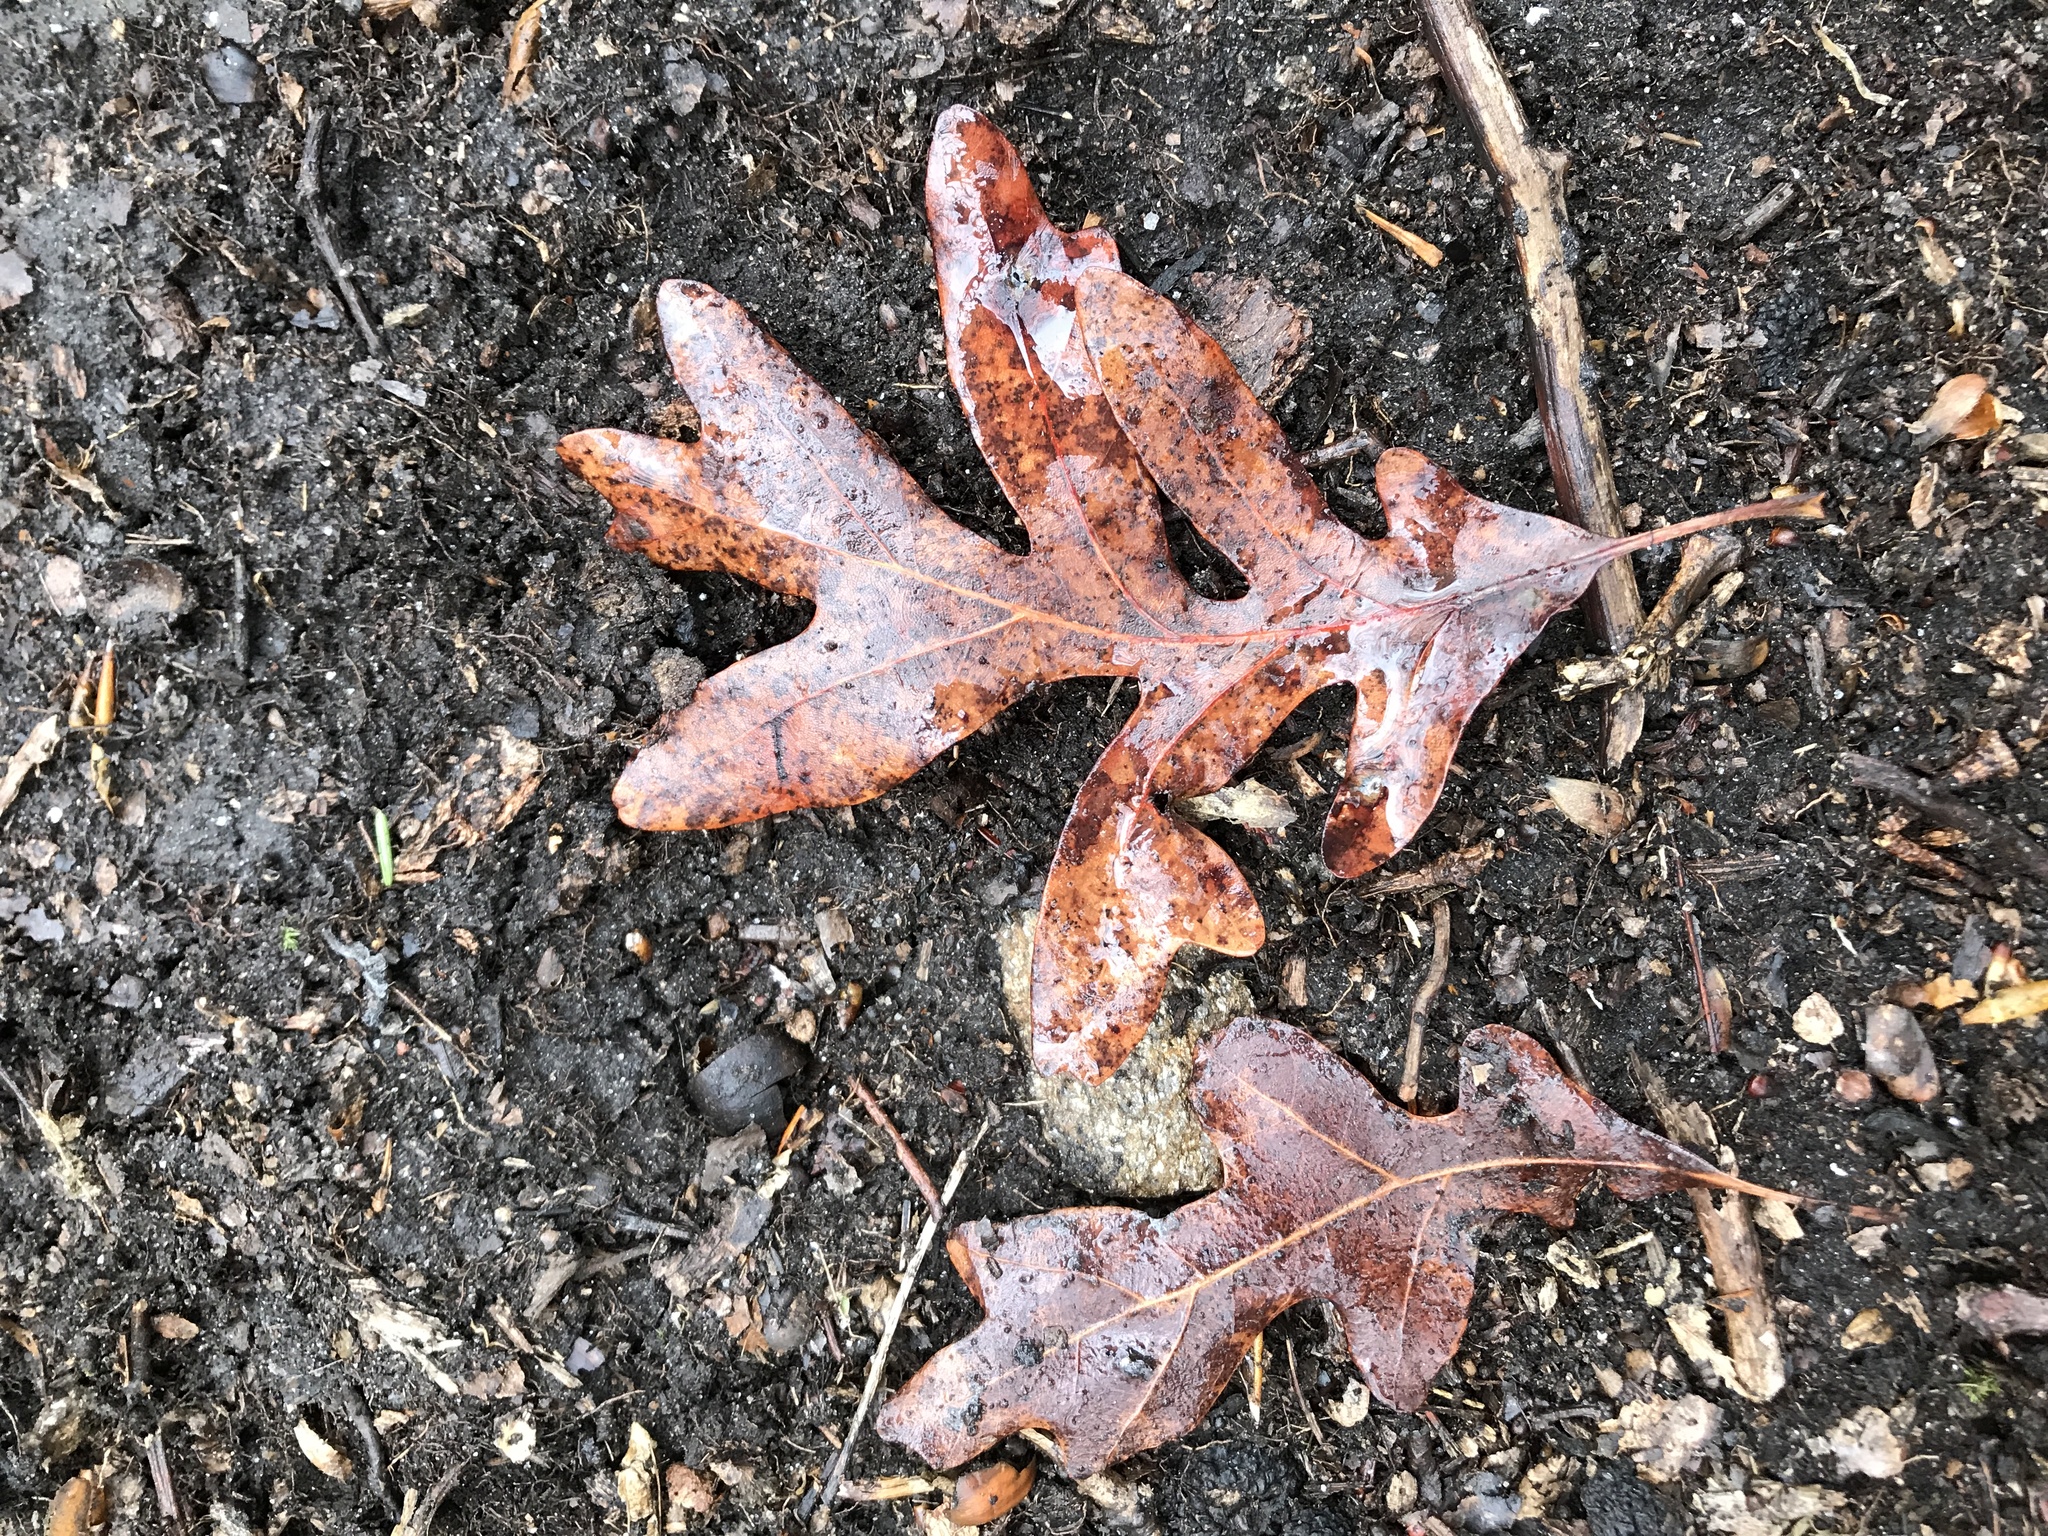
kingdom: Plantae
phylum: Tracheophyta
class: Magnoliopsida
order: Fagales
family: Fagaceae
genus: Quercus
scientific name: Quercus alba
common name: White oak
